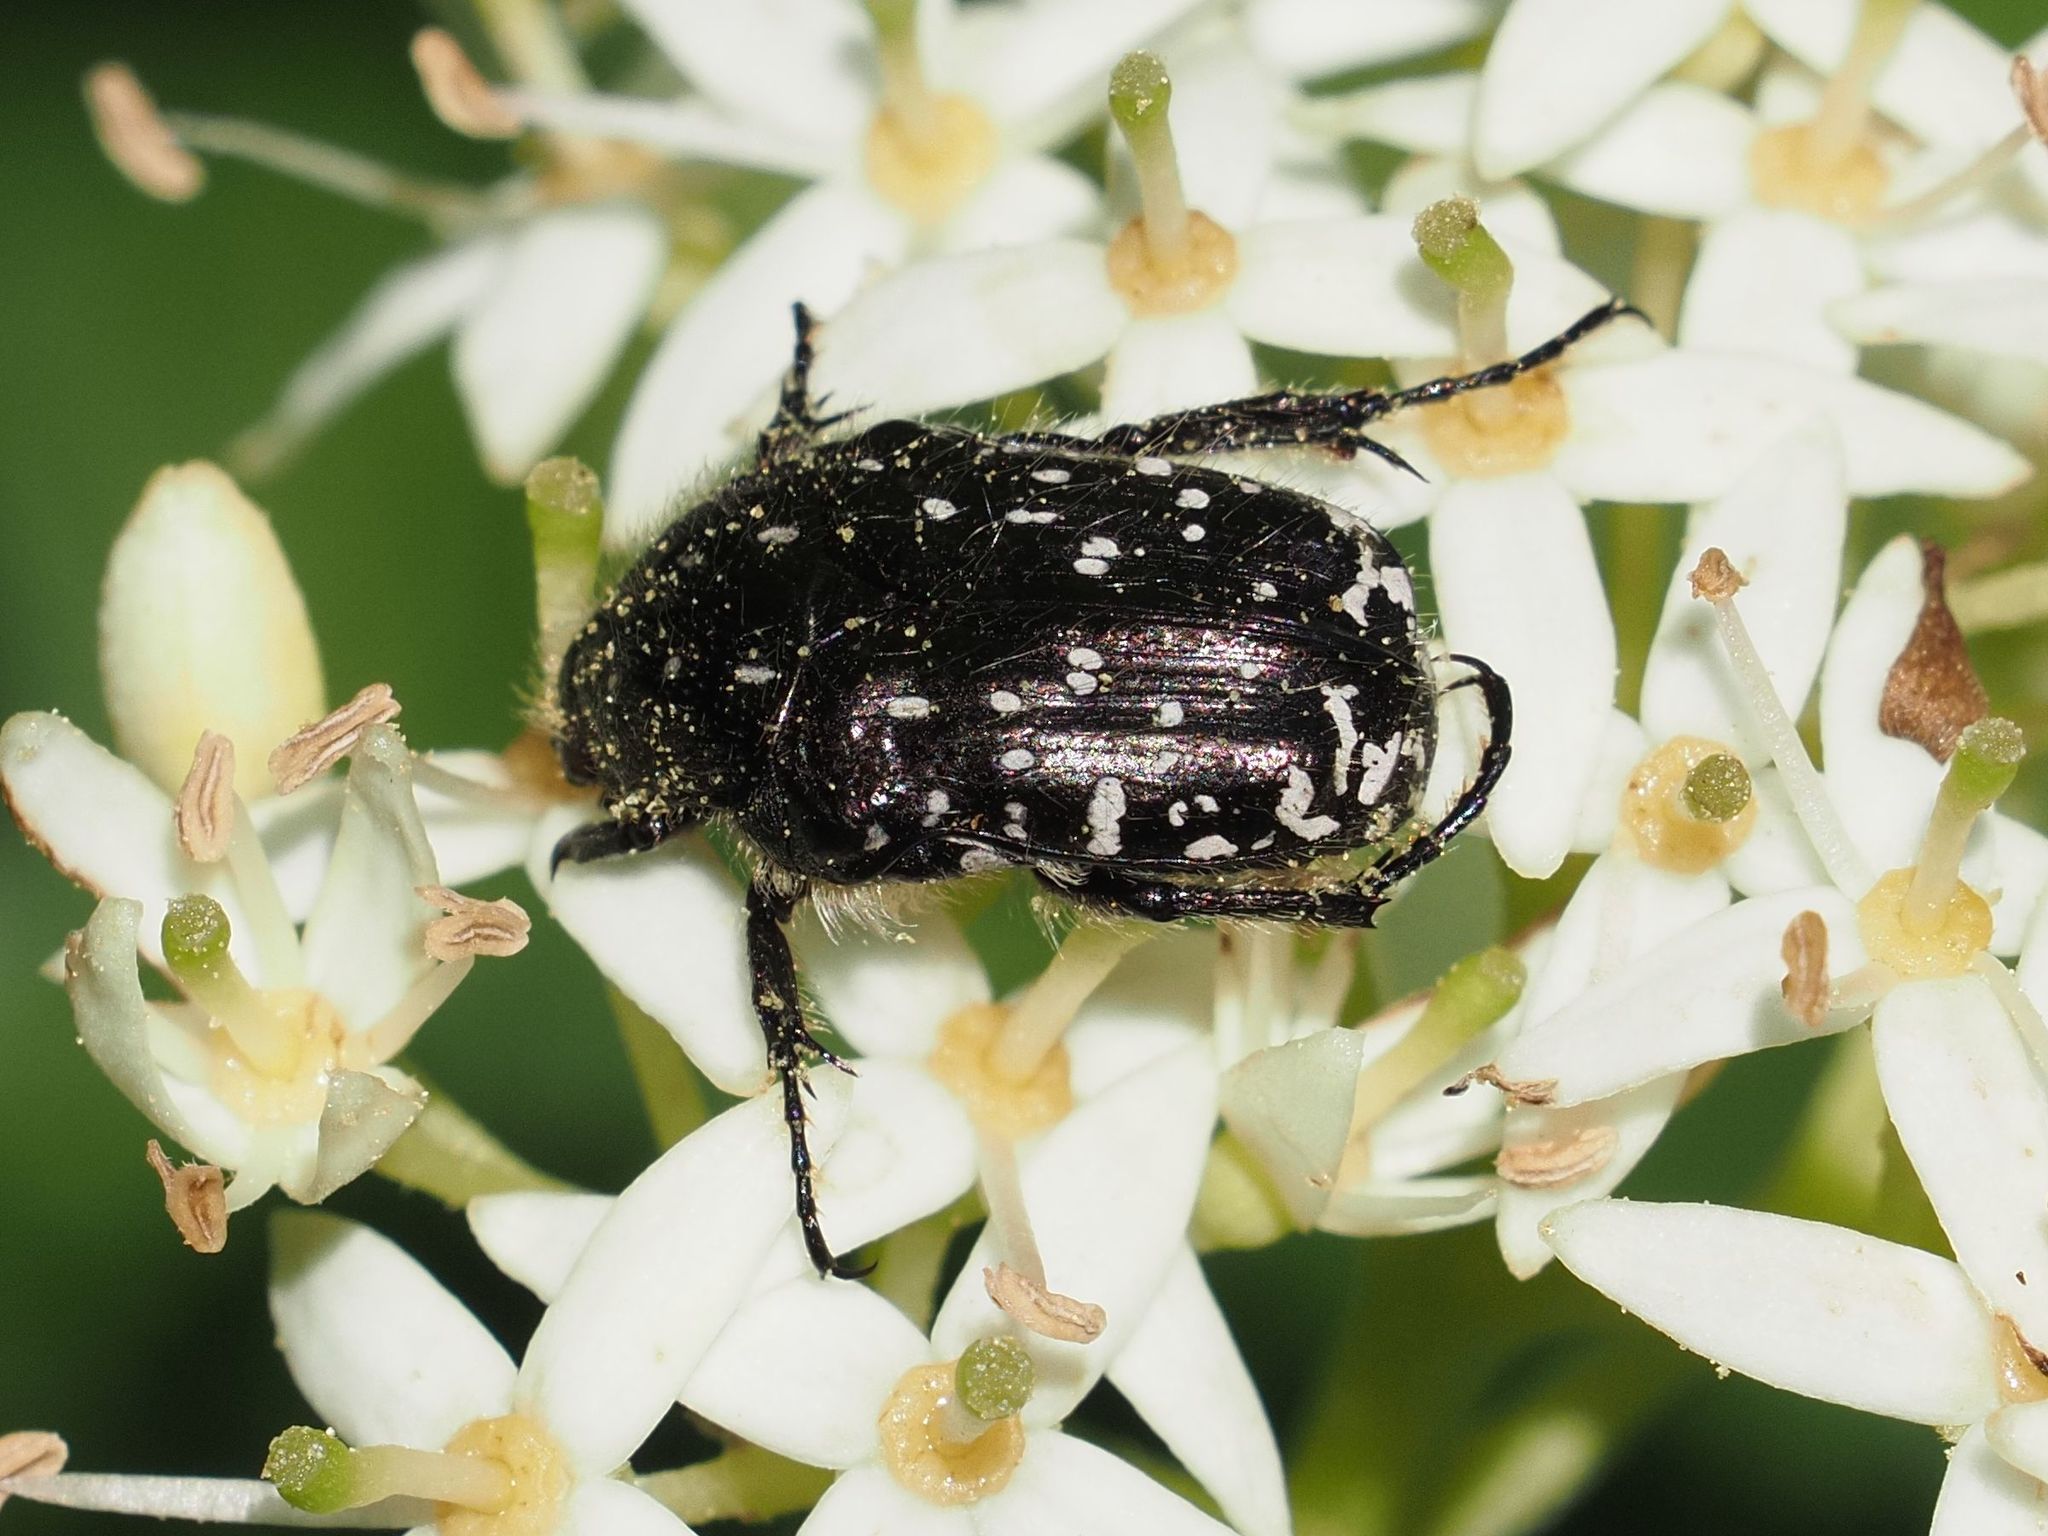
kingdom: Animalia
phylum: Arthropoda
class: Insecta
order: Coleoptera
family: Scarabaeidae
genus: Oxythyrea
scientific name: Oxythyrea funesta
